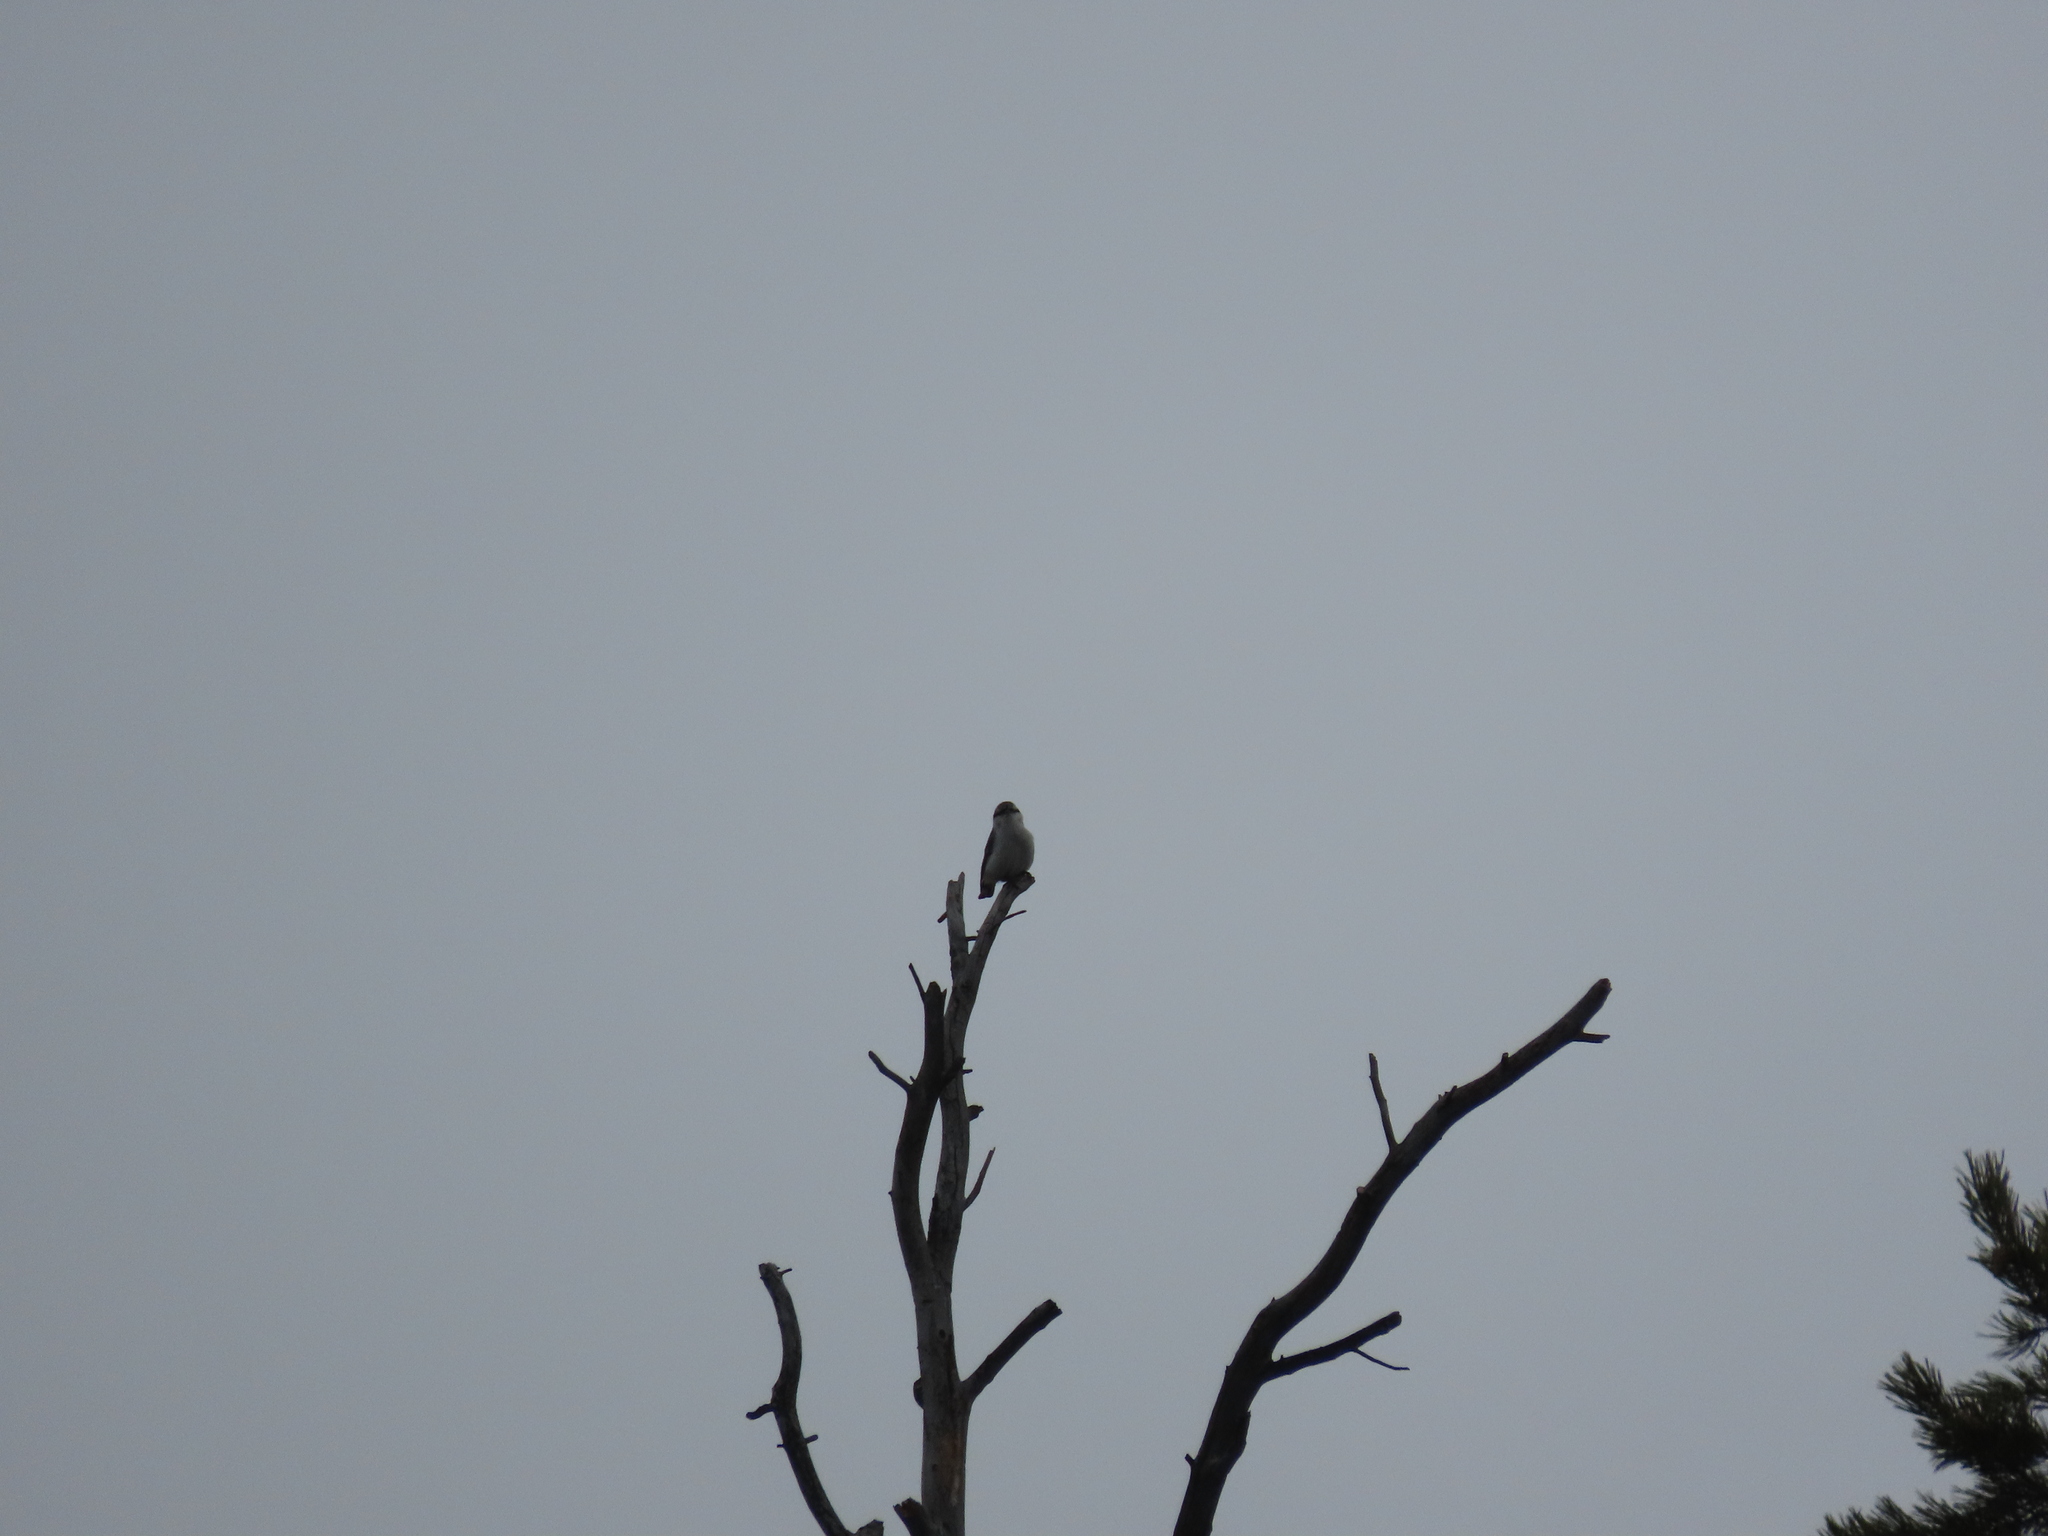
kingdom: Animalia
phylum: Chordata
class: Aves
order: Passeriformes
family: Sittidae
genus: Sitta
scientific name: Sitta europaea
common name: Eurasian nuthatch
